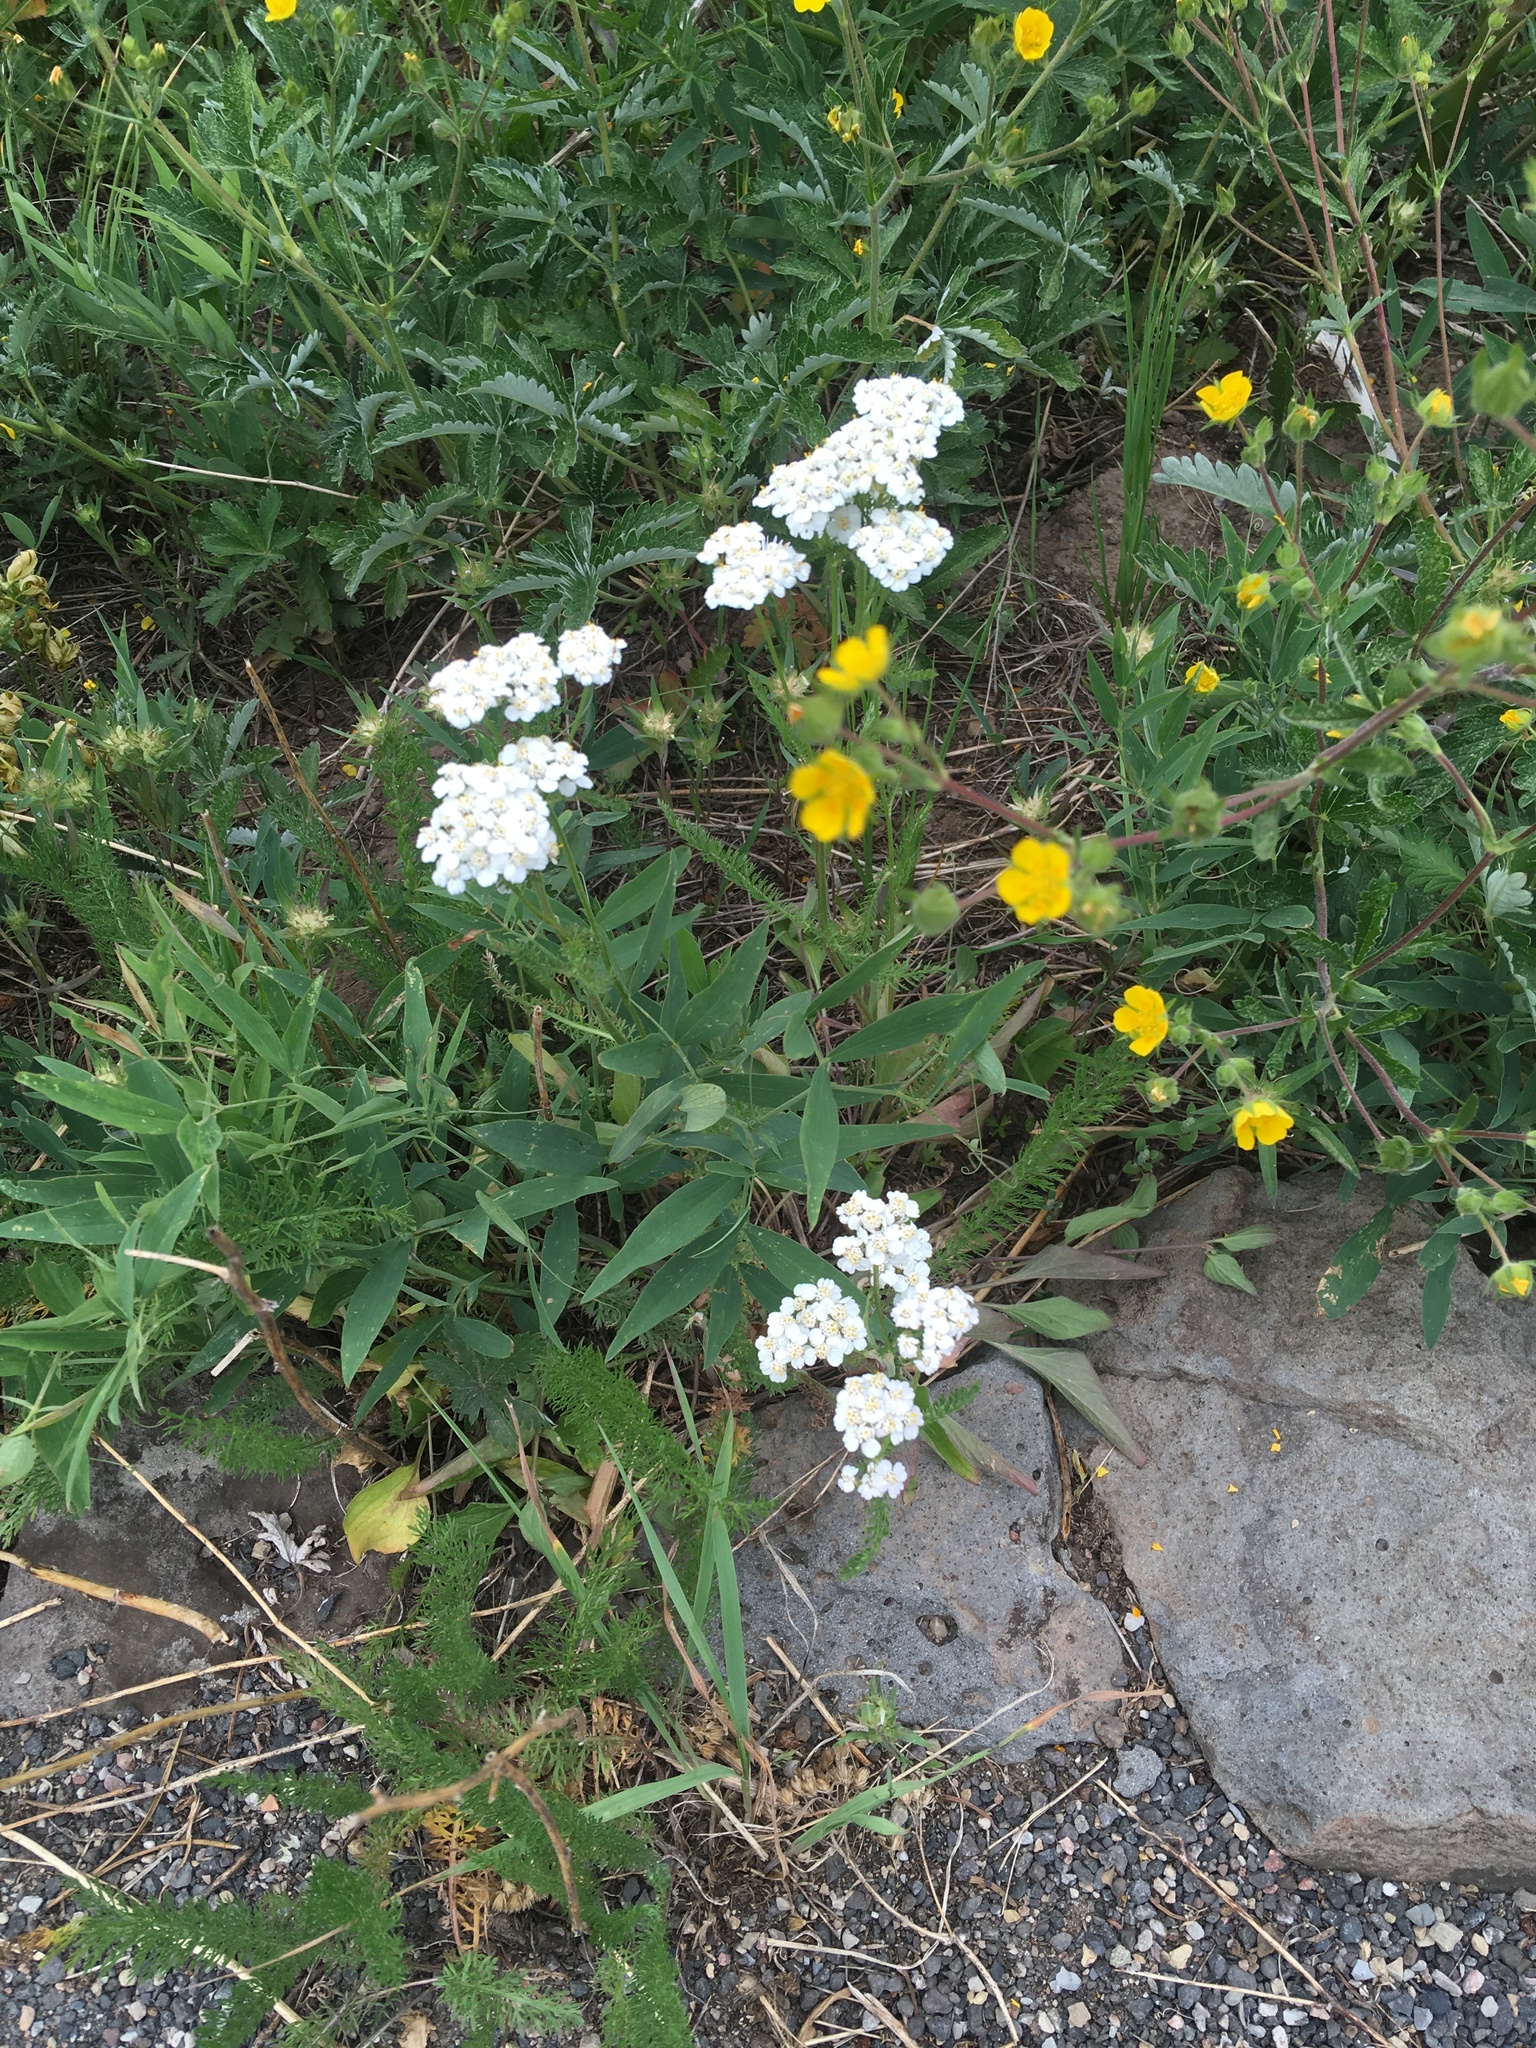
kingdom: Plantae
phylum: Tracheophyta
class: Magnoliopsida
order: Asterales
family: Asteraceae
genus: Achillea
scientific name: Achillea millefolium
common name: Yarrow
